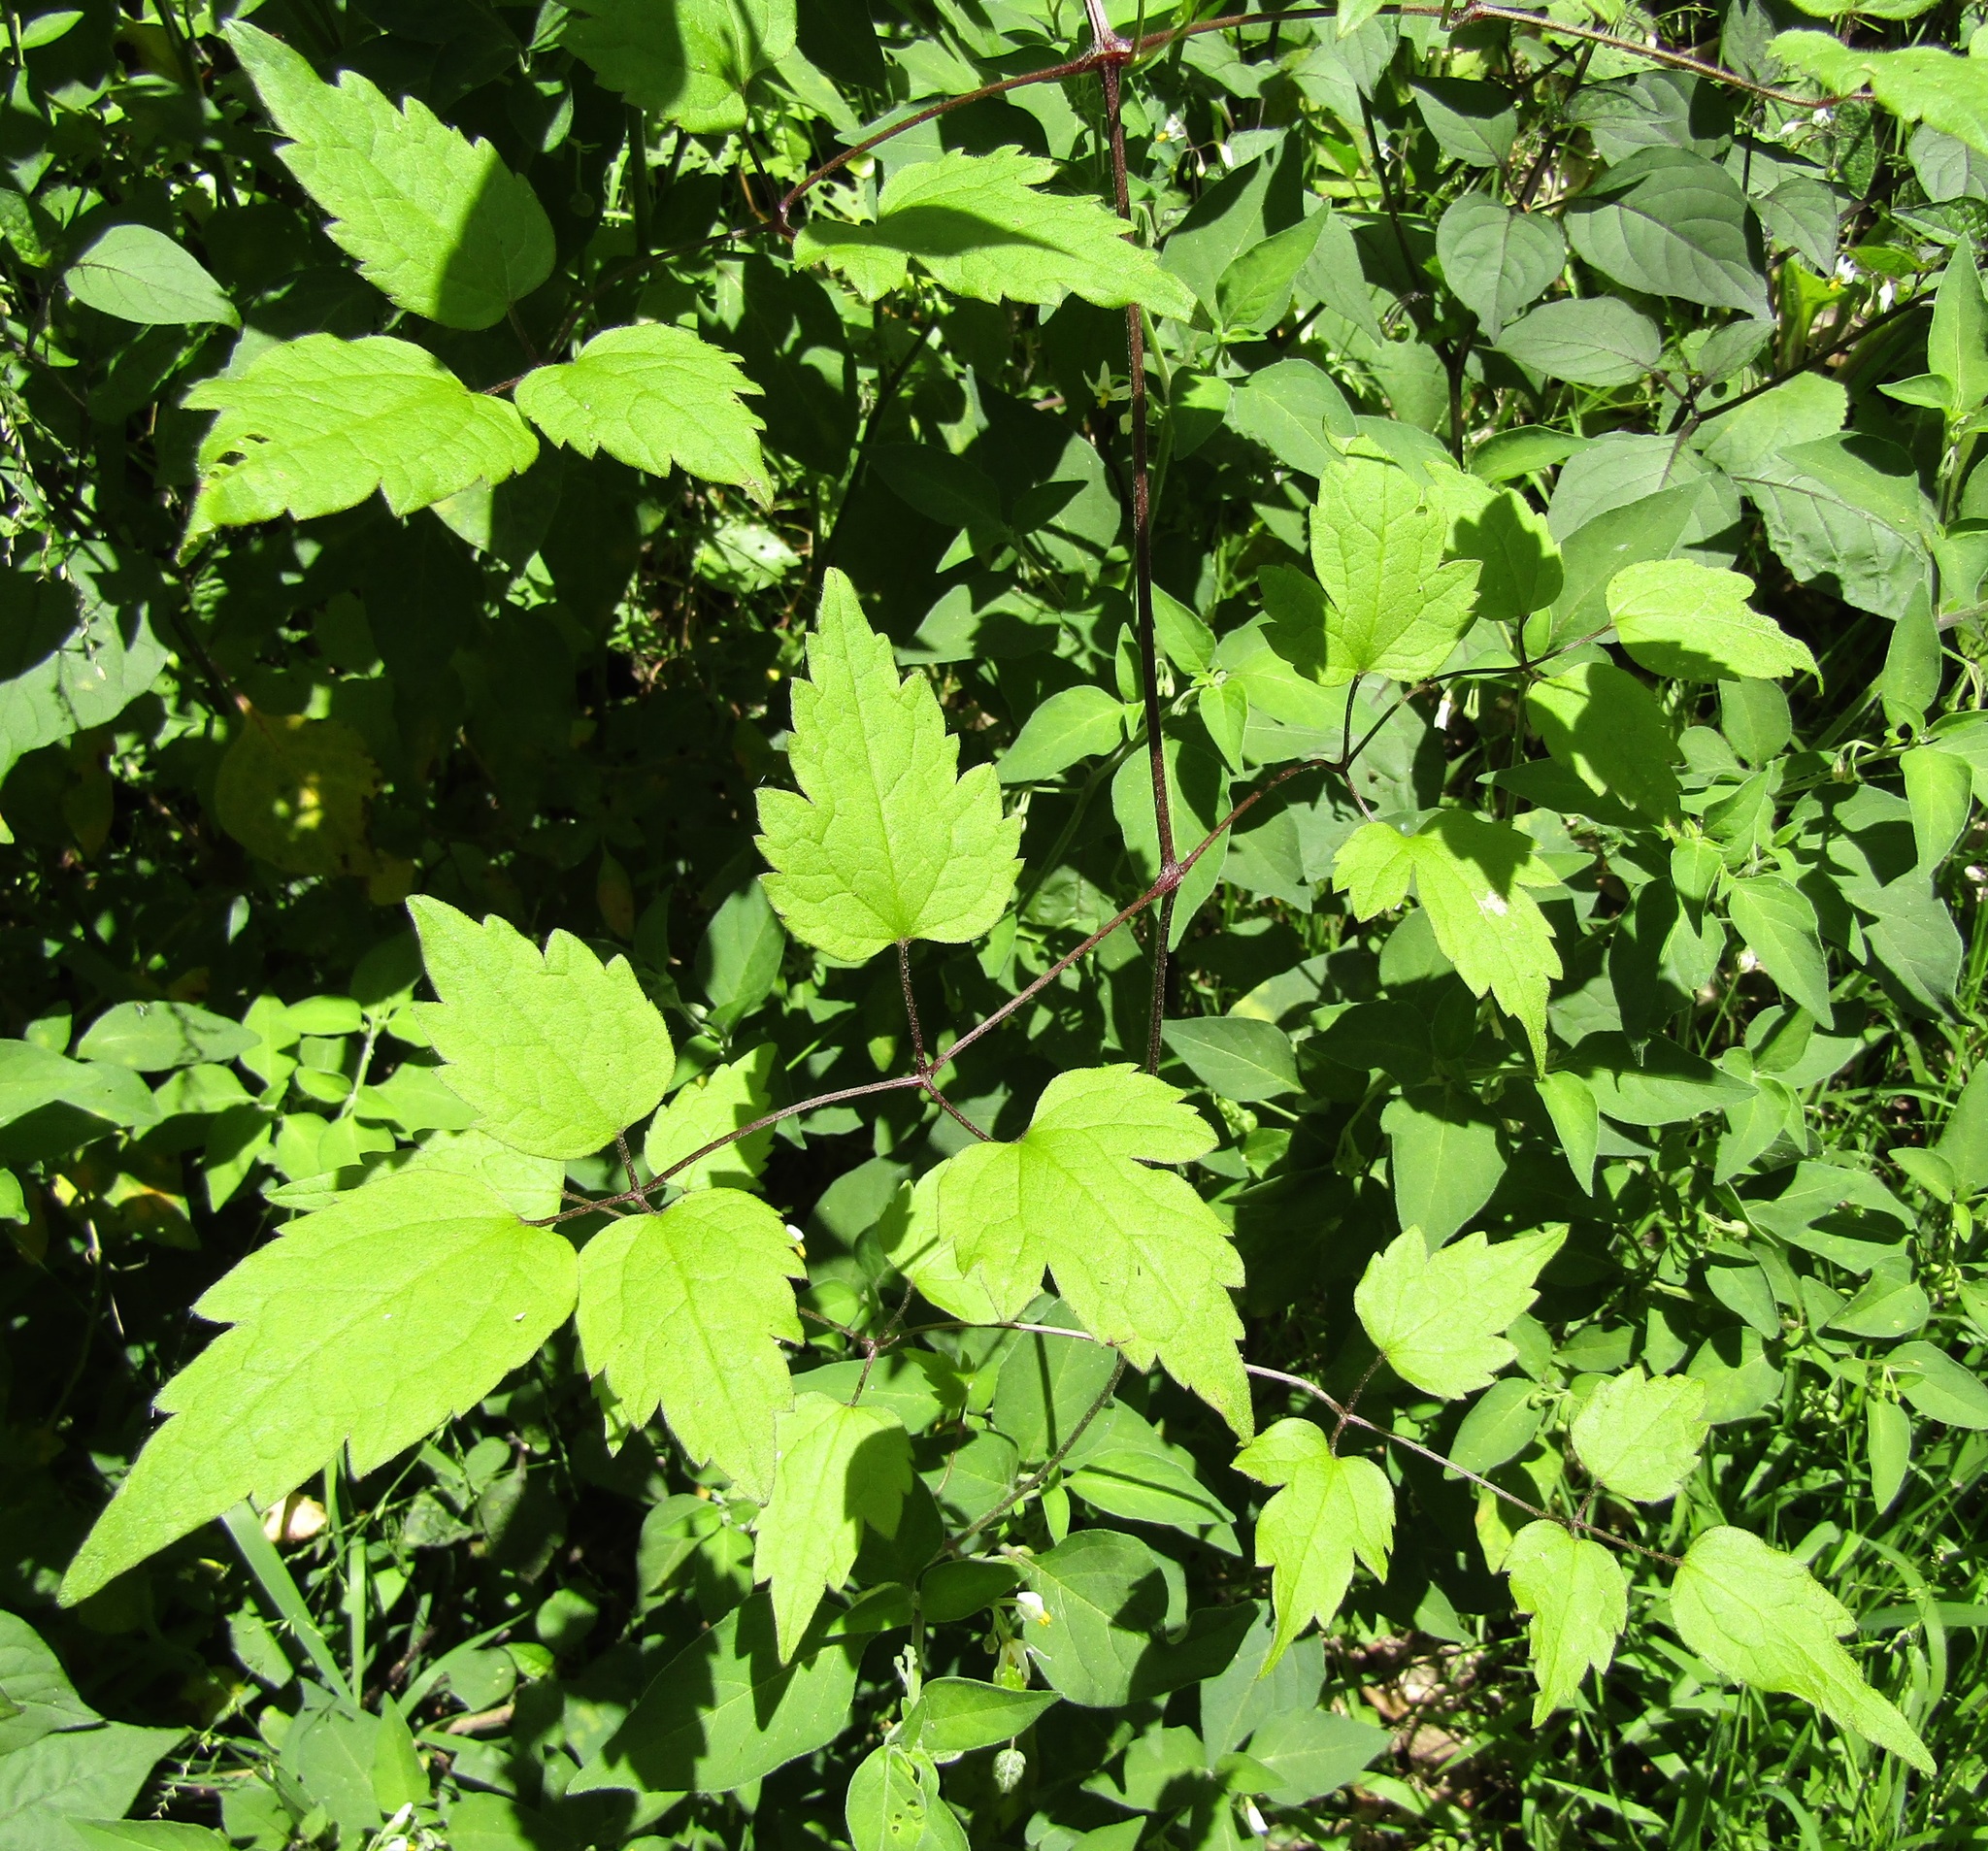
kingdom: Plantae
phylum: Tracheophyta
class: Magnoliopsida
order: Ranunculales
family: Ranunculaceae
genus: Clematis
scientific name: Clematis vitalba
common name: Evergreen clematis
